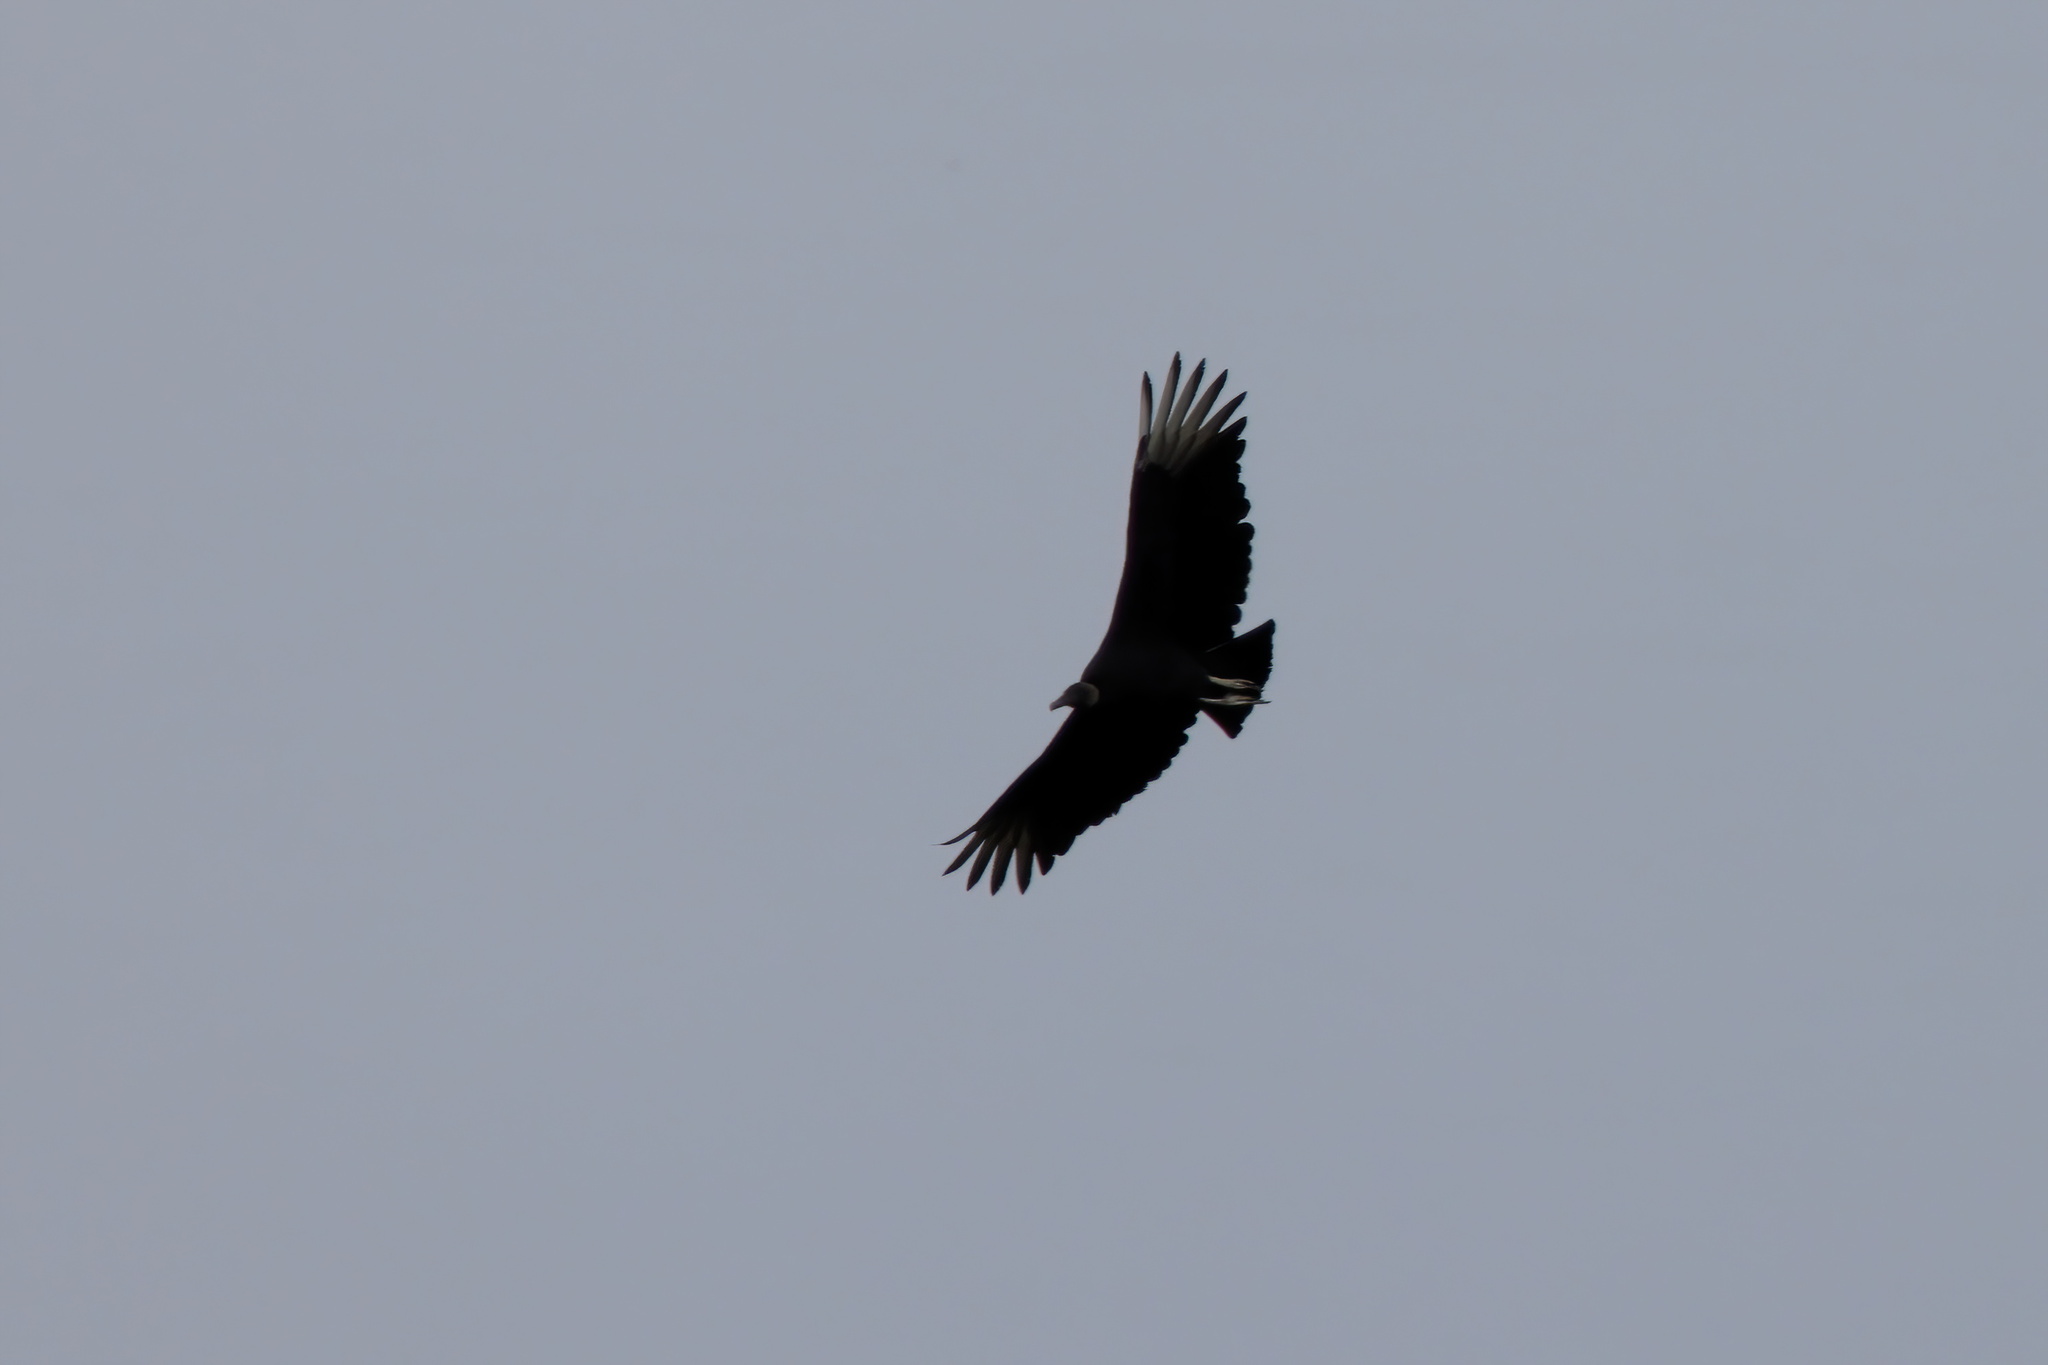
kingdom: Animalia
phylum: Chordata
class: Aves
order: Accipitriformes
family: Cathartidae
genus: Coragyps
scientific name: Coragyps atratus
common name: Black vulture
